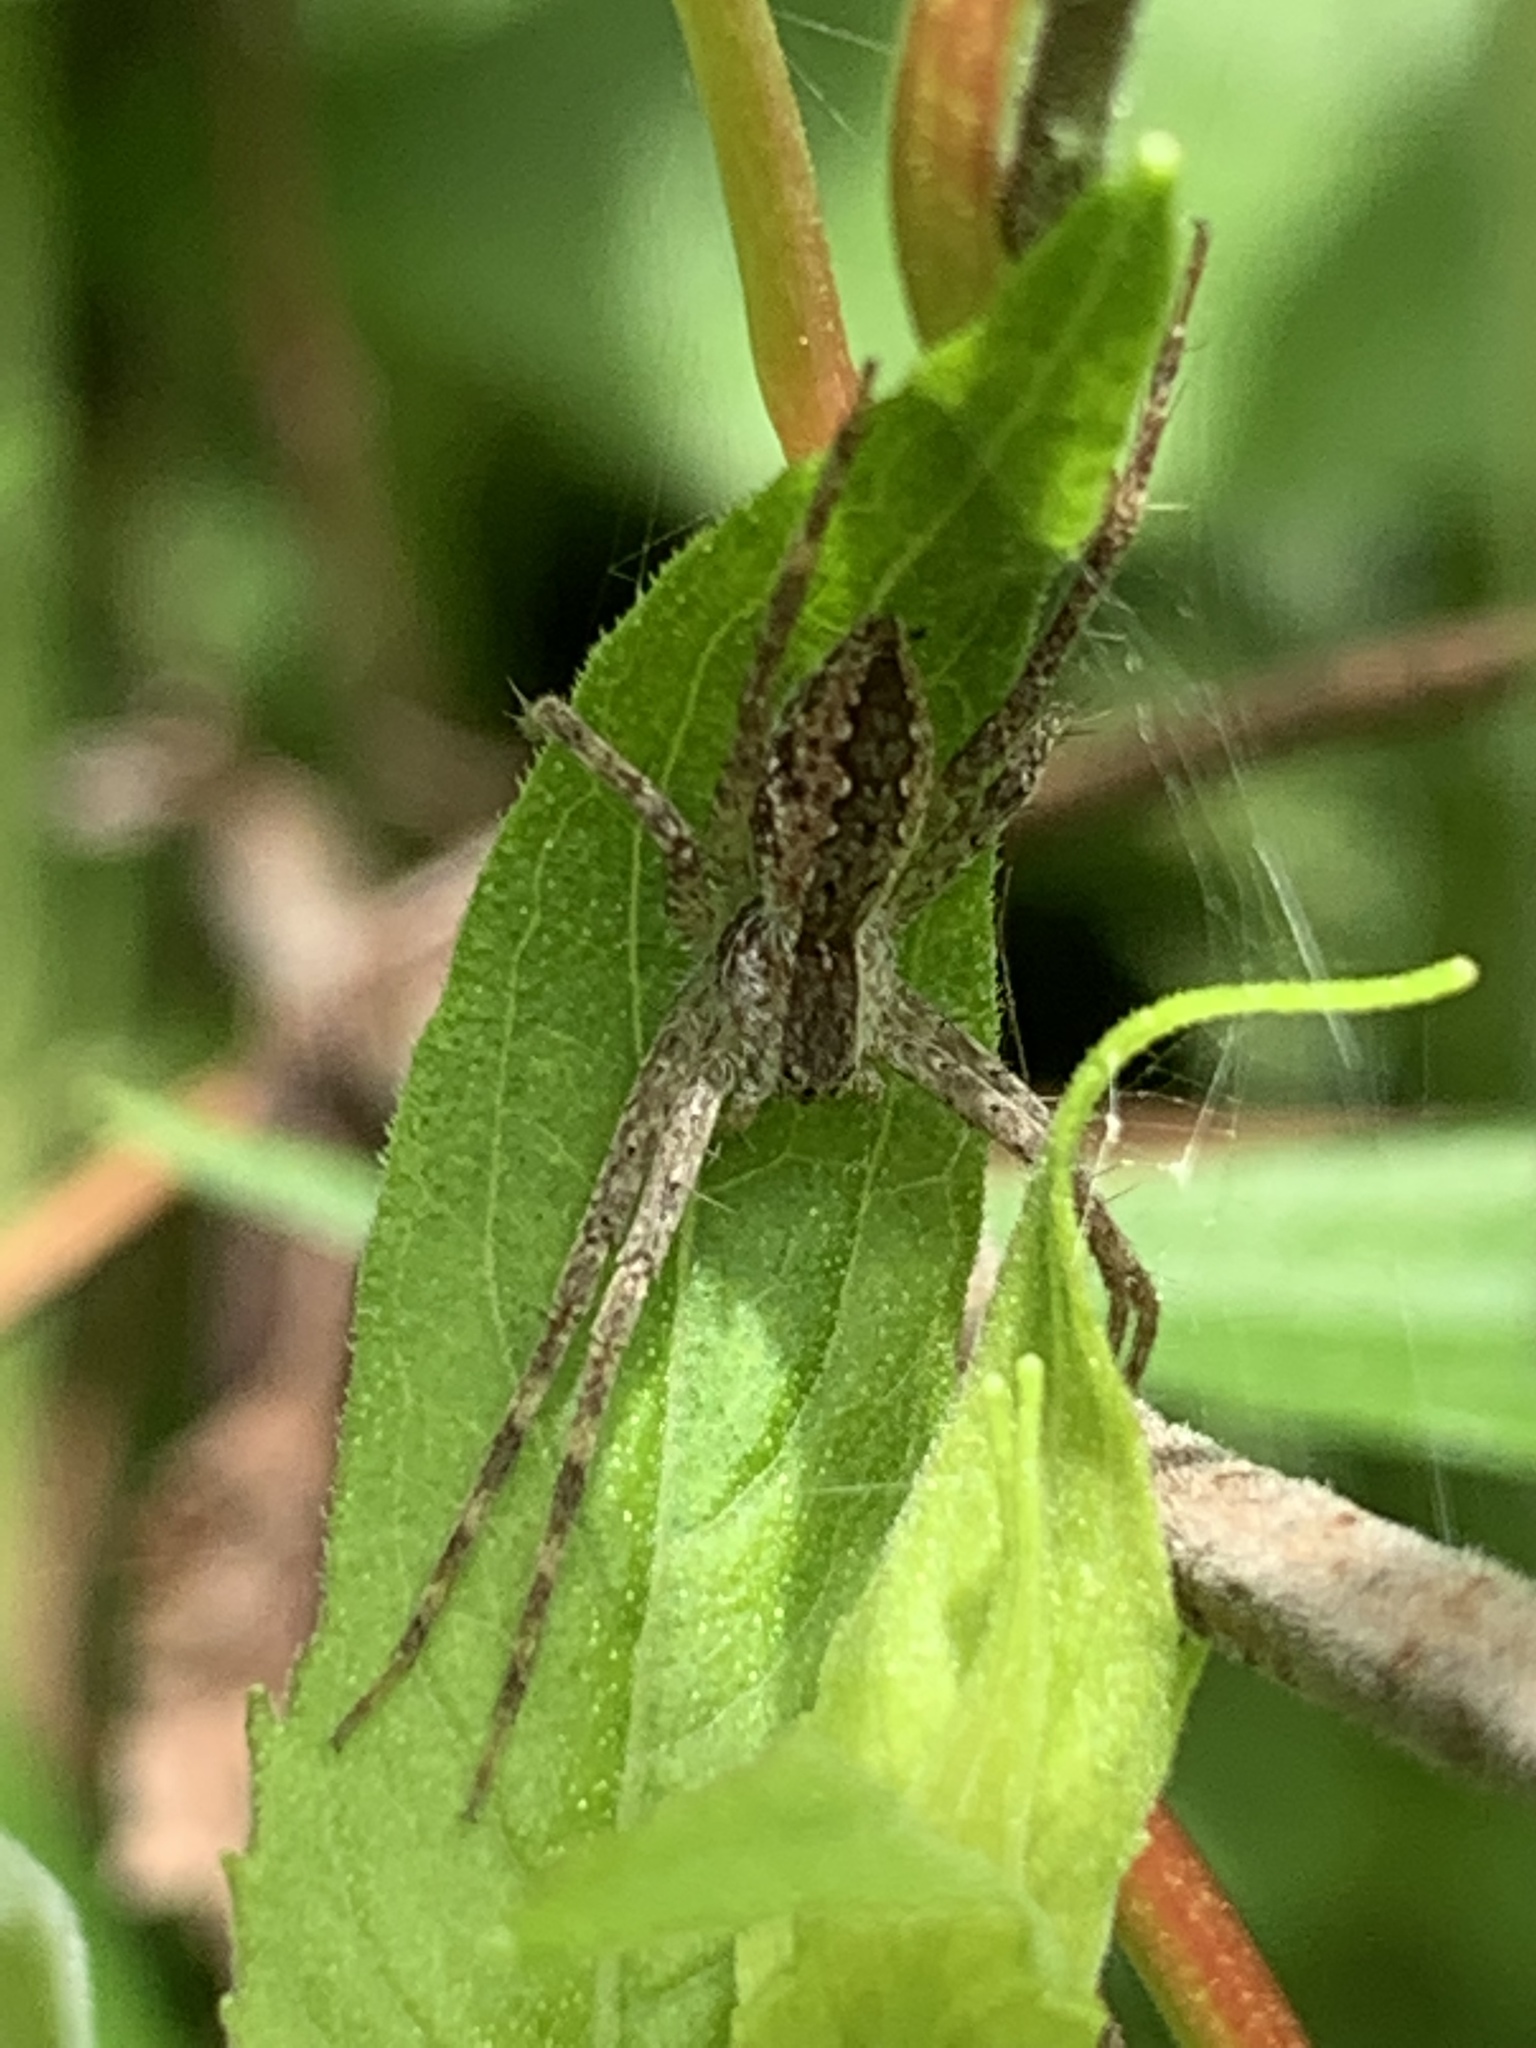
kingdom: Animalia
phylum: Arthropoda
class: Arachnida
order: Araneae
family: Pisauridae
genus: Pisaurina
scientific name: Pisaurina mira
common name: American nursery web spider
